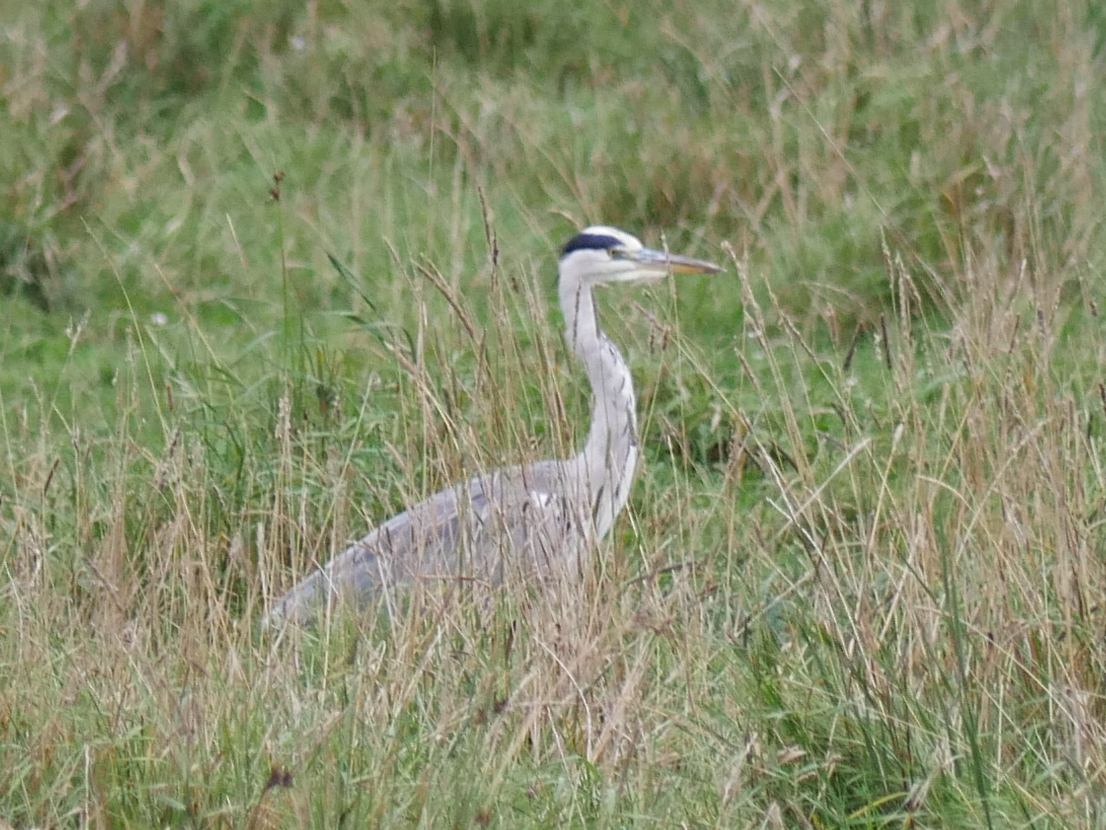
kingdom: Animalia
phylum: Chordata
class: Aves
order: Pelecaniformes
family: Ardeidae
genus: Ardea
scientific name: Ardea cinerea
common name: Grey heron
